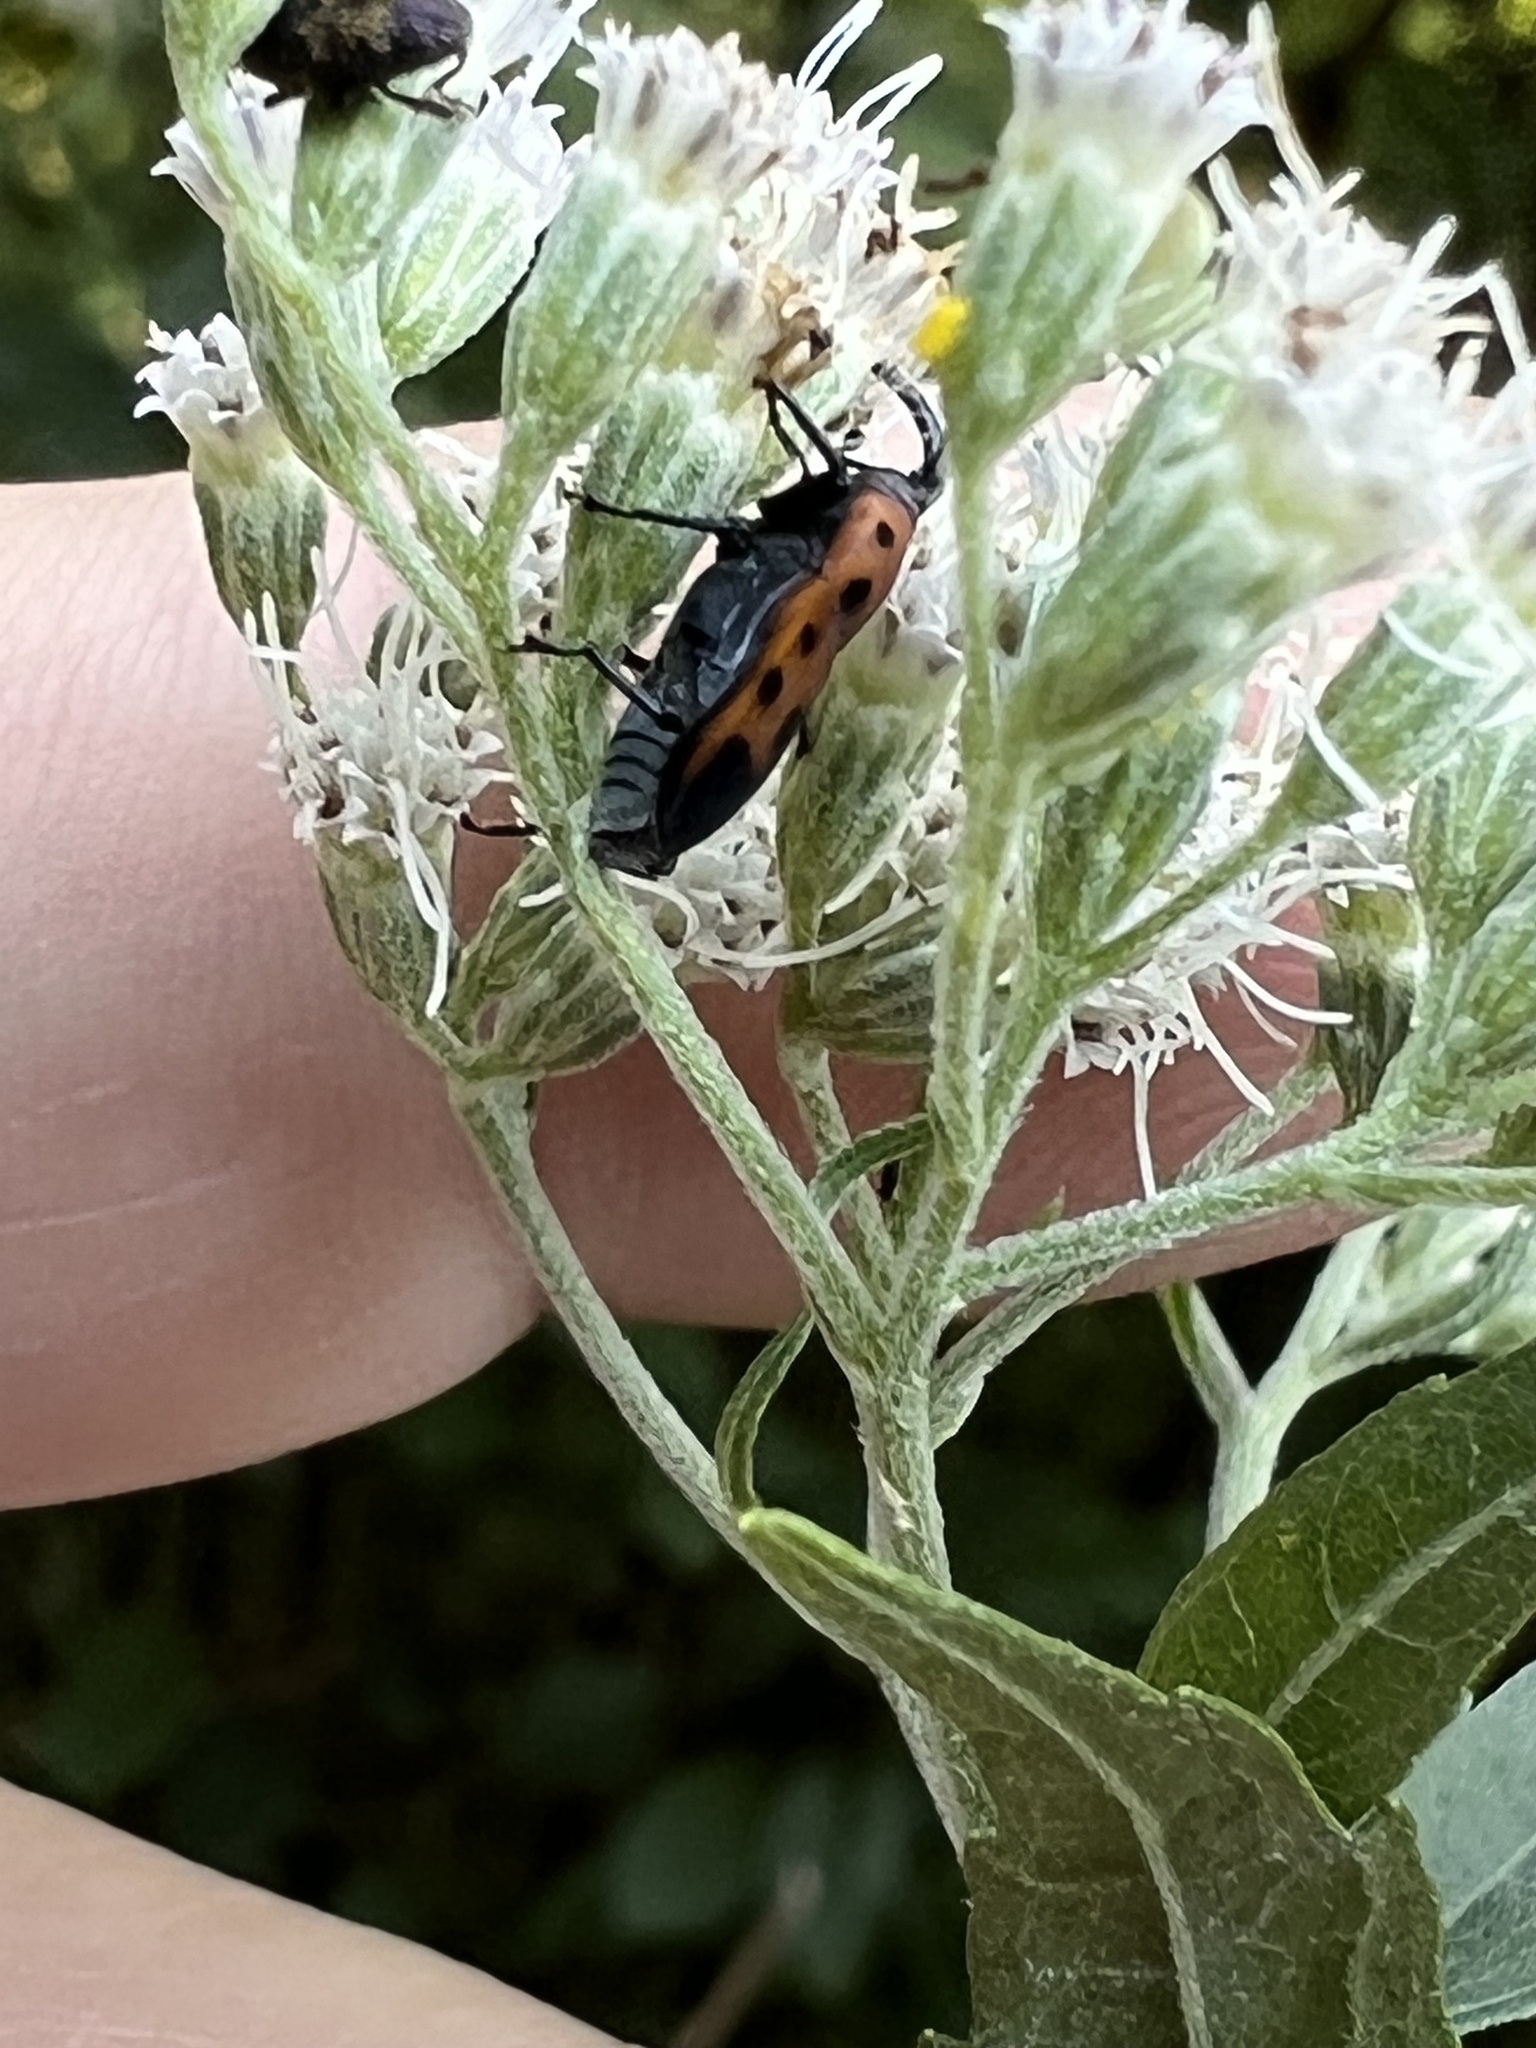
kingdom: Animalia
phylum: Arthropoda
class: Insecta
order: Coleoptera
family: Dryophthoridae
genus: Rhodobaenus
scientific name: Rhodobaenus quinquepunctatus
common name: Cocklebur weevil
